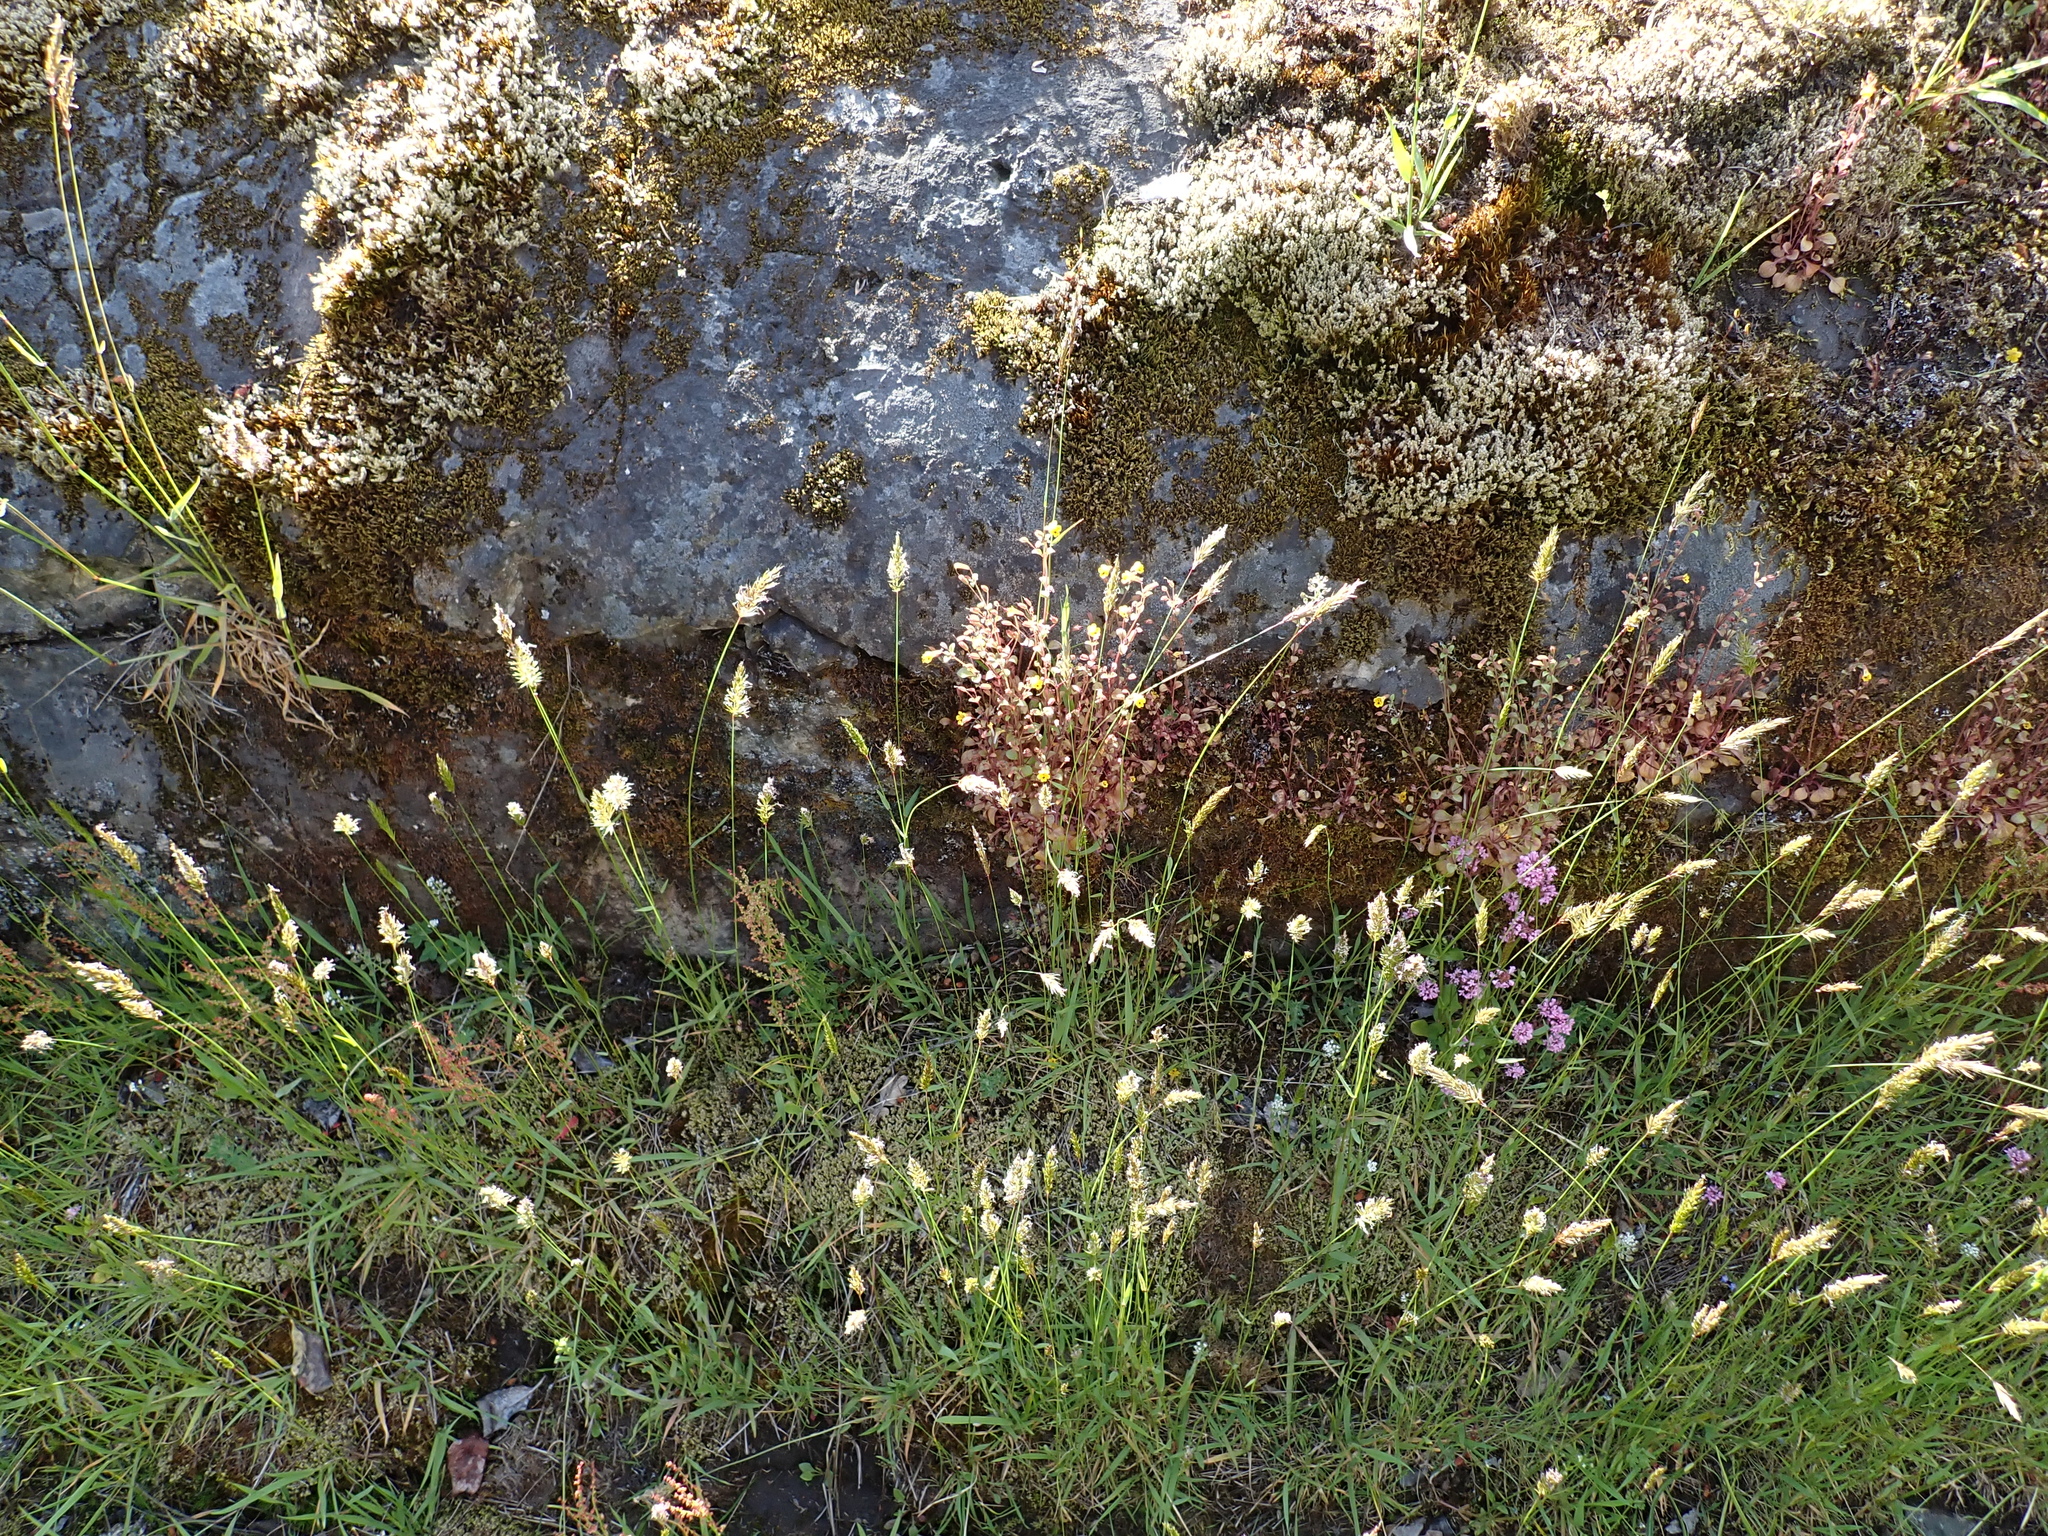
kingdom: Plantae
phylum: Tracheophyta
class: Magnoliopsida
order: Lamiales
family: Phrymaceae
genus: Erythranthe
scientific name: Erythranthe alsinoides
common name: Chickweed monkeyflower
